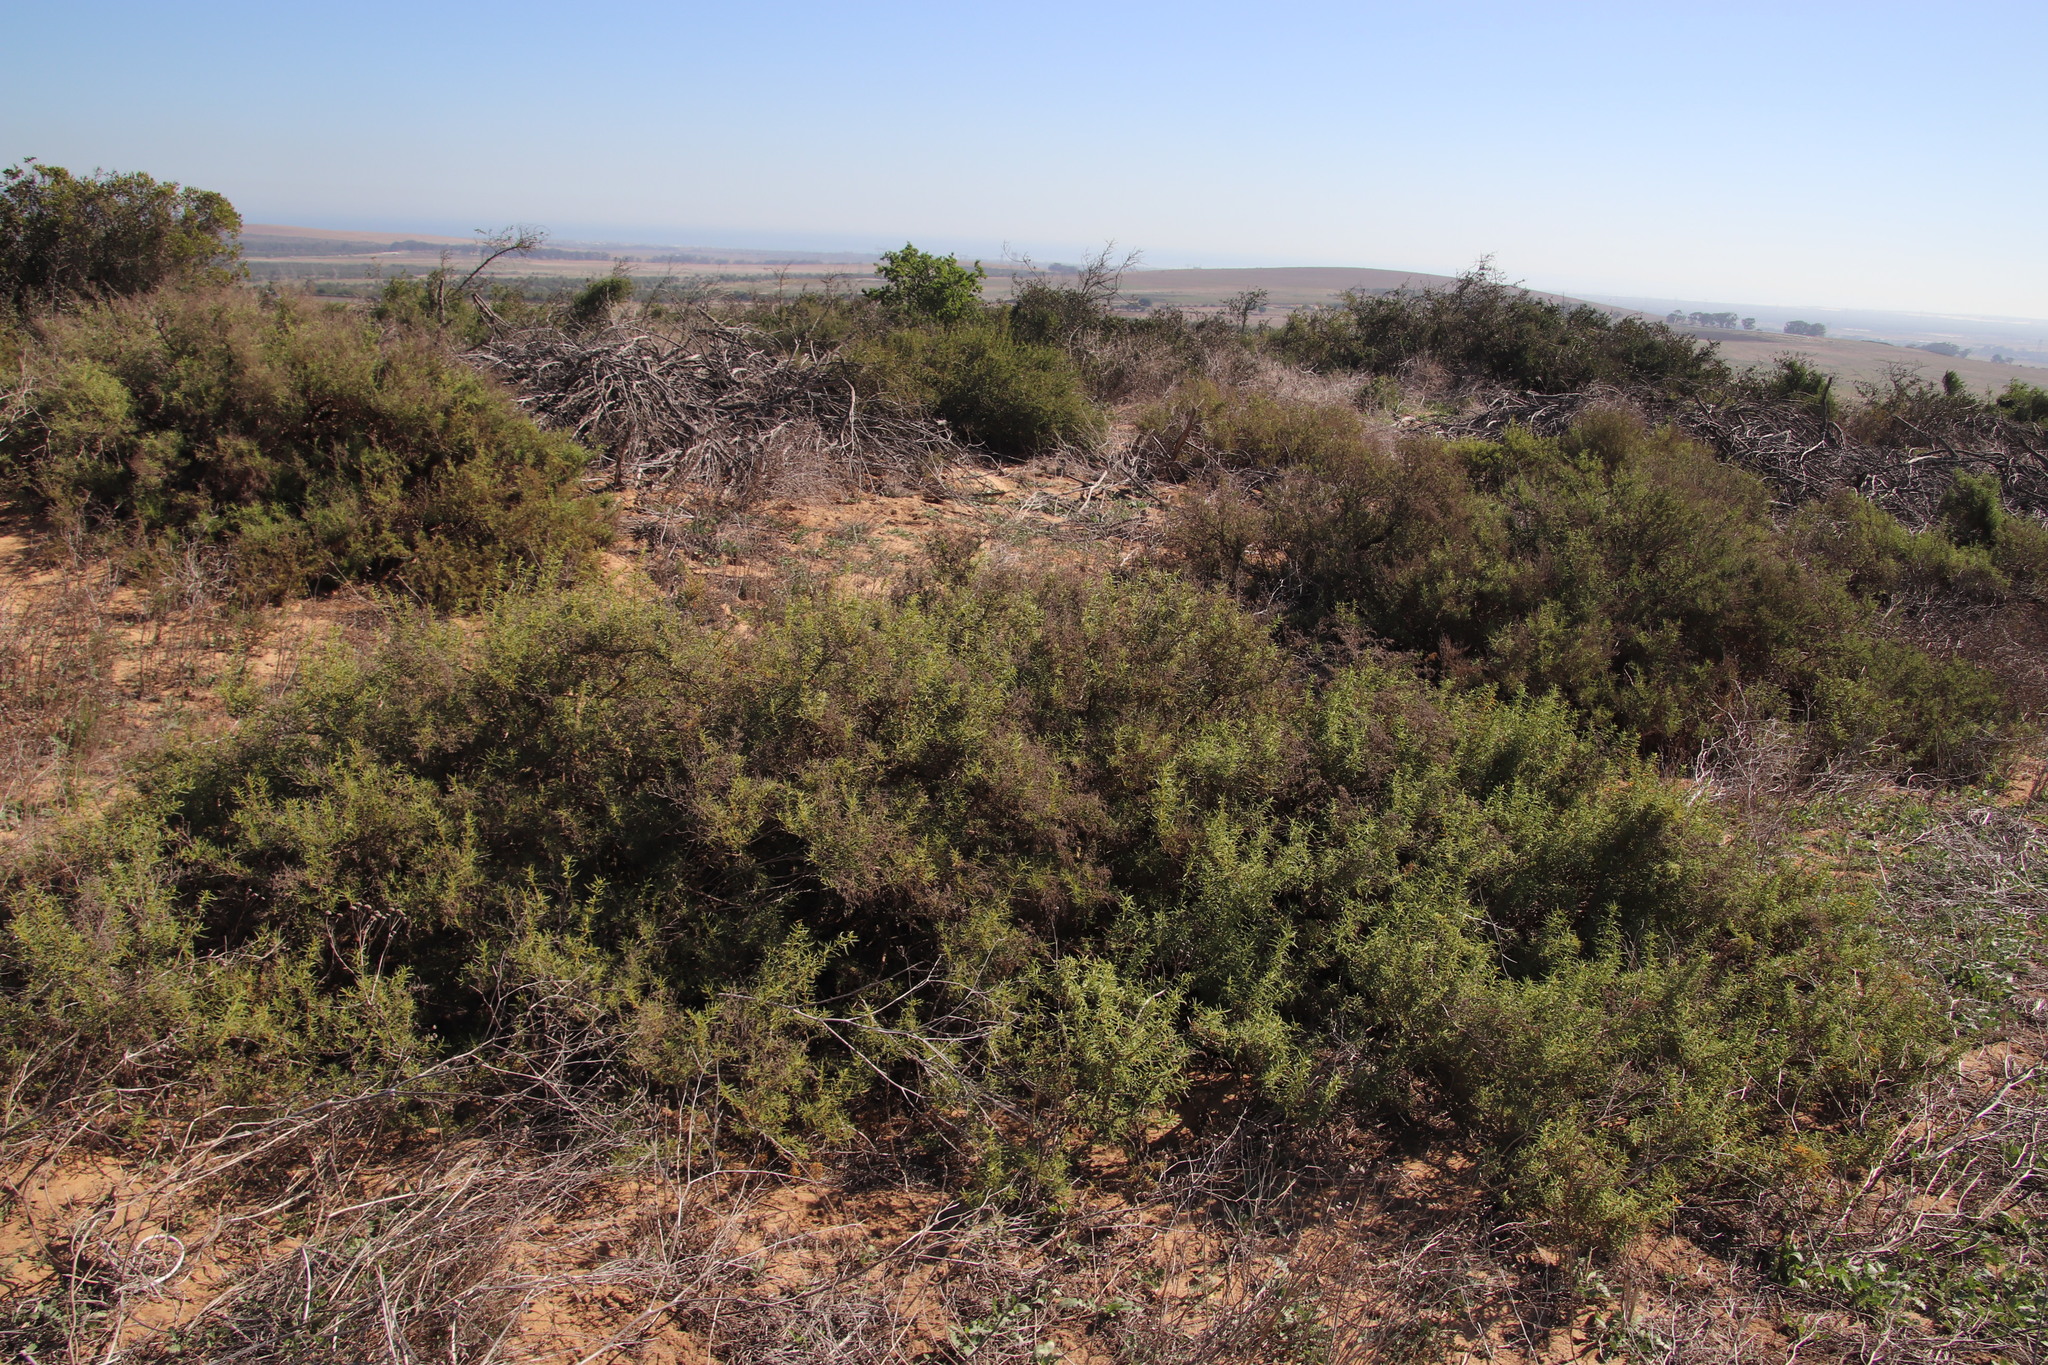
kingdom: Plantae
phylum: Tracheophyta
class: Magnoliopsida
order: Caryophyllales
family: Aizoaceae
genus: Aizoon
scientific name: Aizoon africanum
